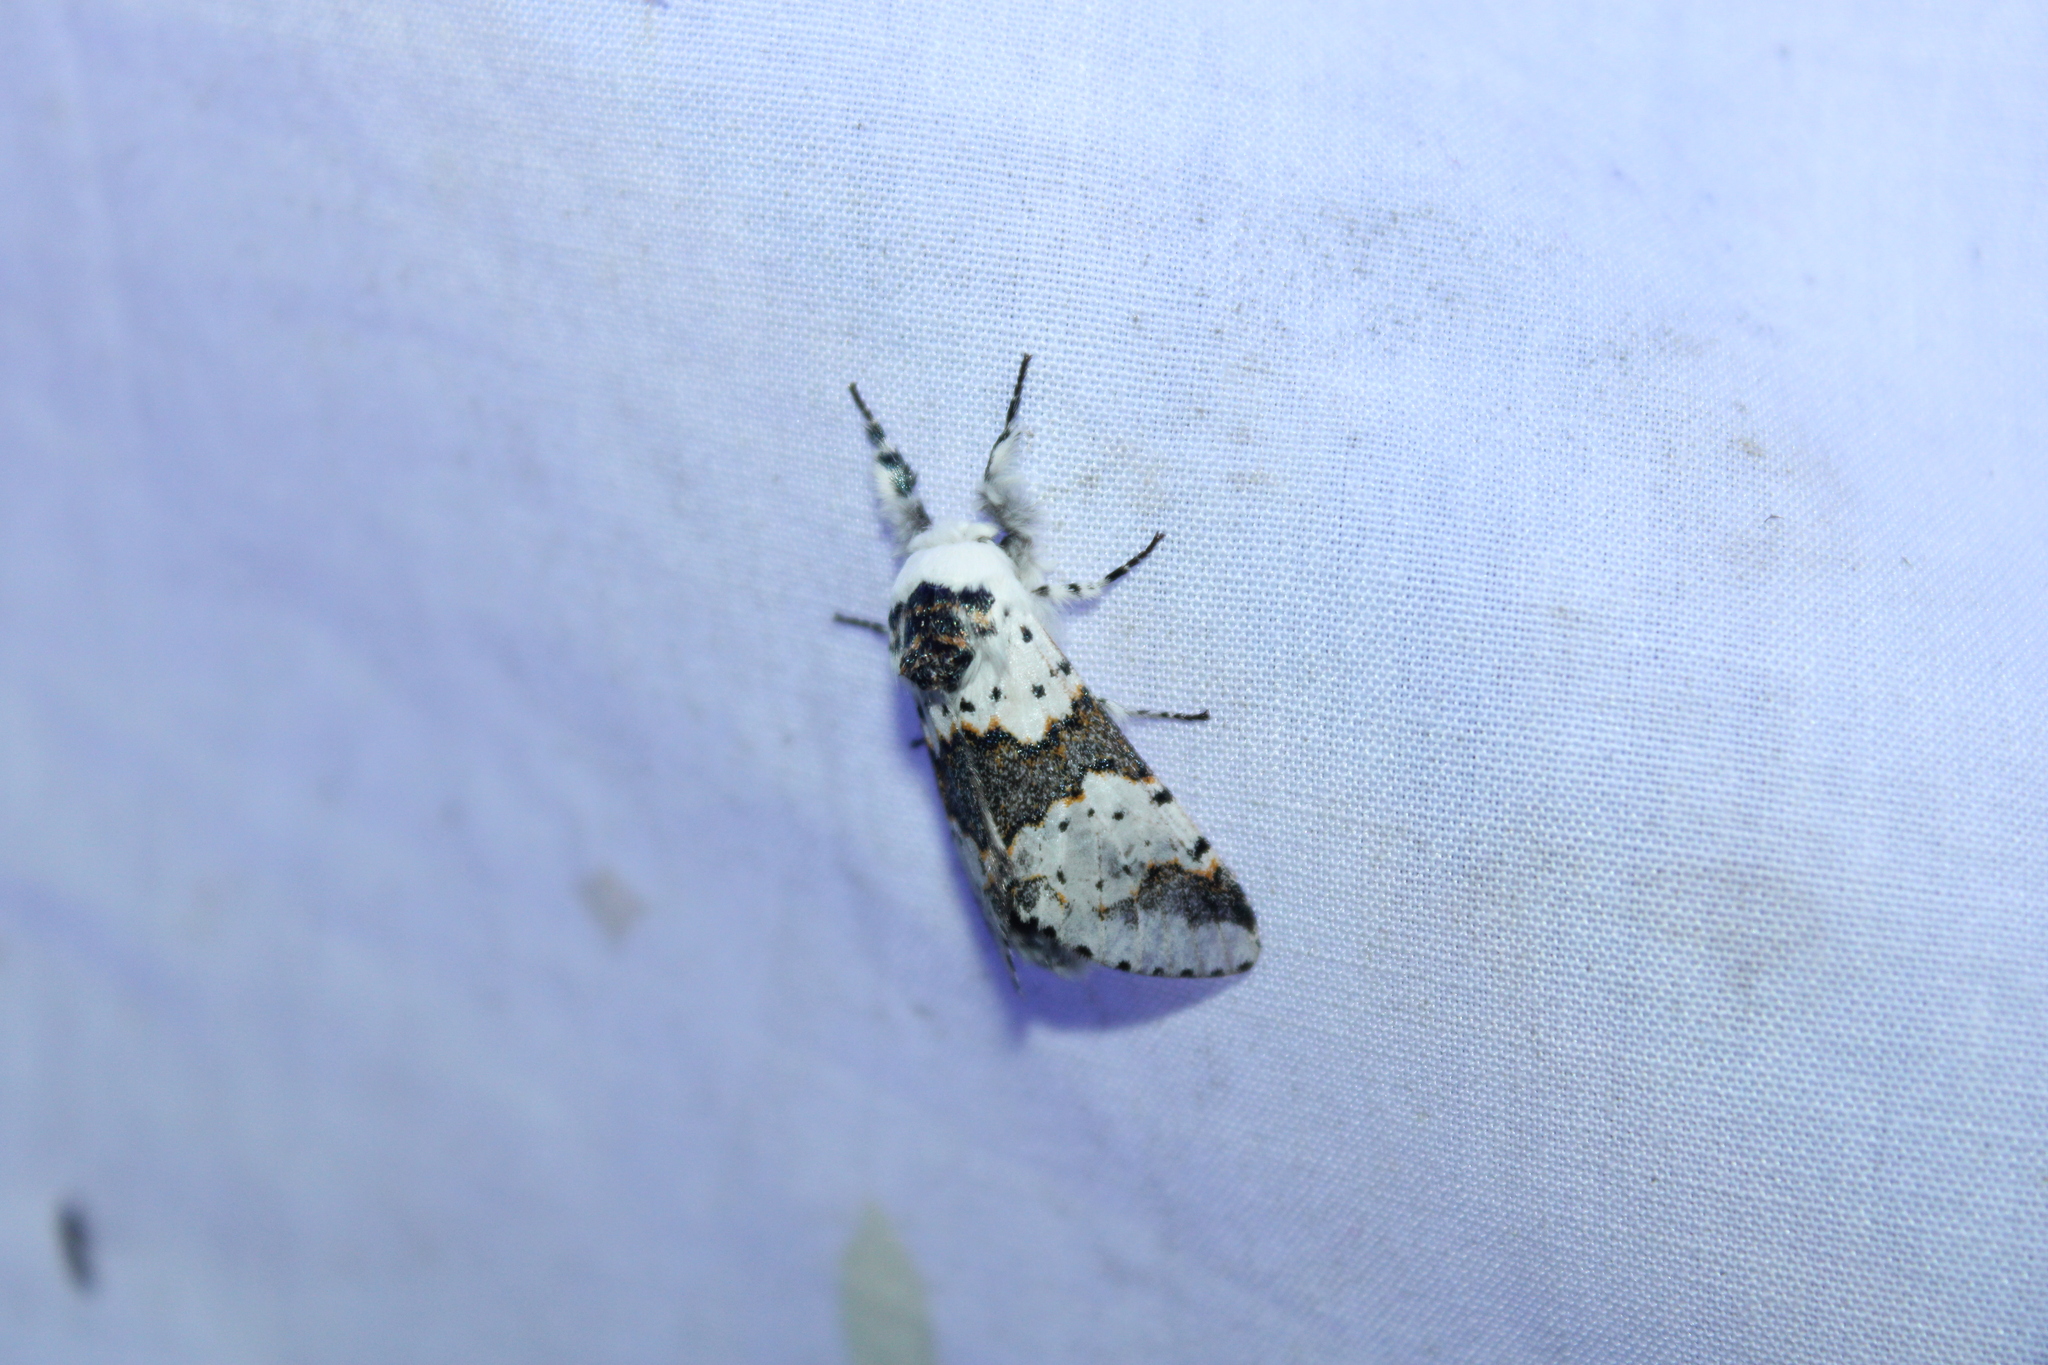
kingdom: Animalia
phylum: Arthropoda
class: Insecta
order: Lepidoptera
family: Notodontidae
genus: Furcula
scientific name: Furcula borealis
